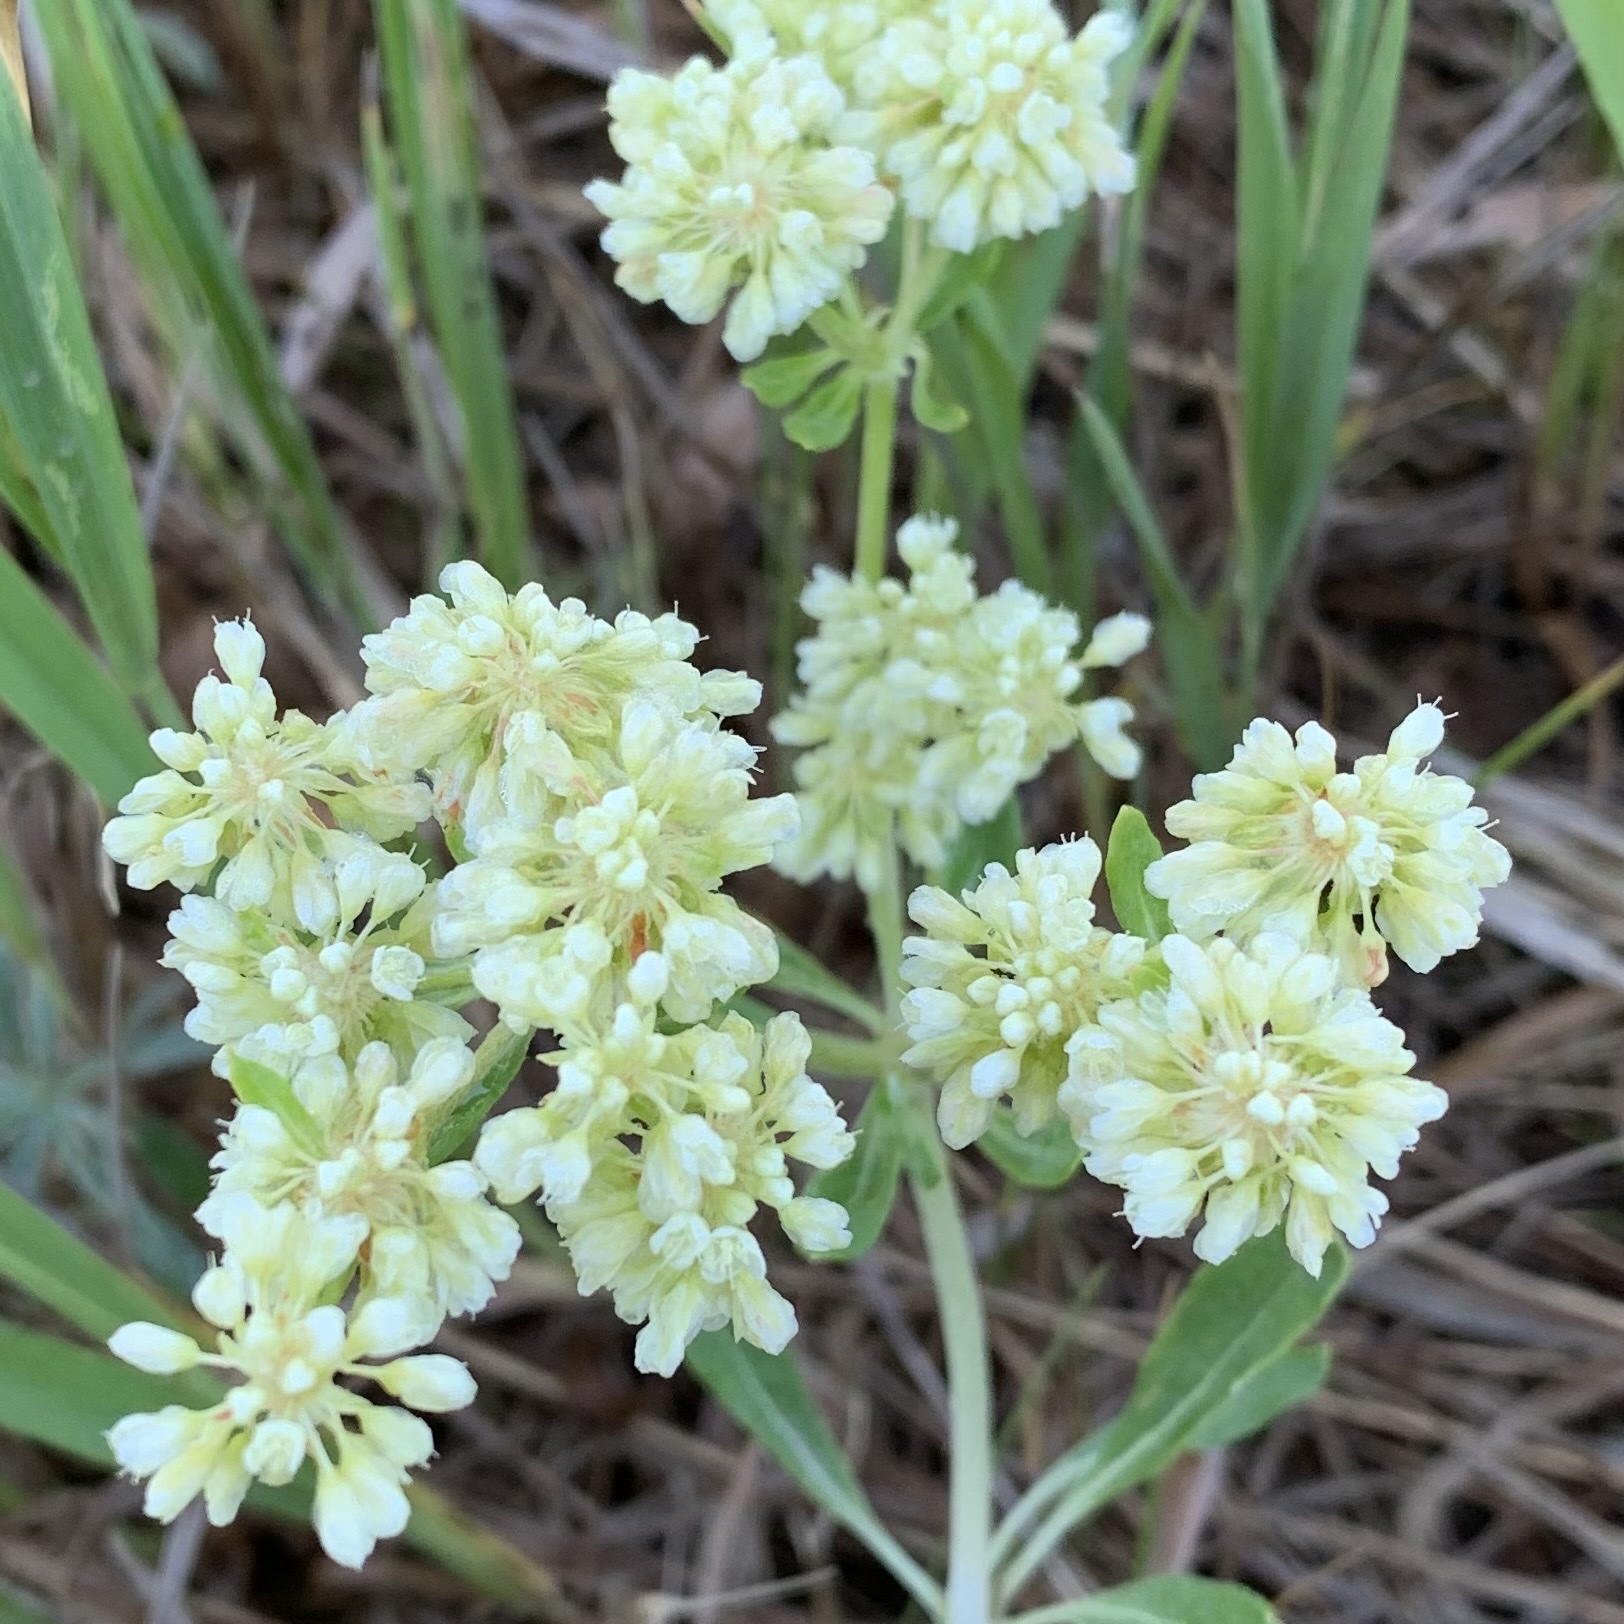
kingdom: Plantae
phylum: Tracheophyta
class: Magnoliopsida
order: Caryophyllales
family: Polygonaceae
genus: Eriogonum
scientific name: Eriogonum heracleoides
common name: Wyeth's buckwheat
